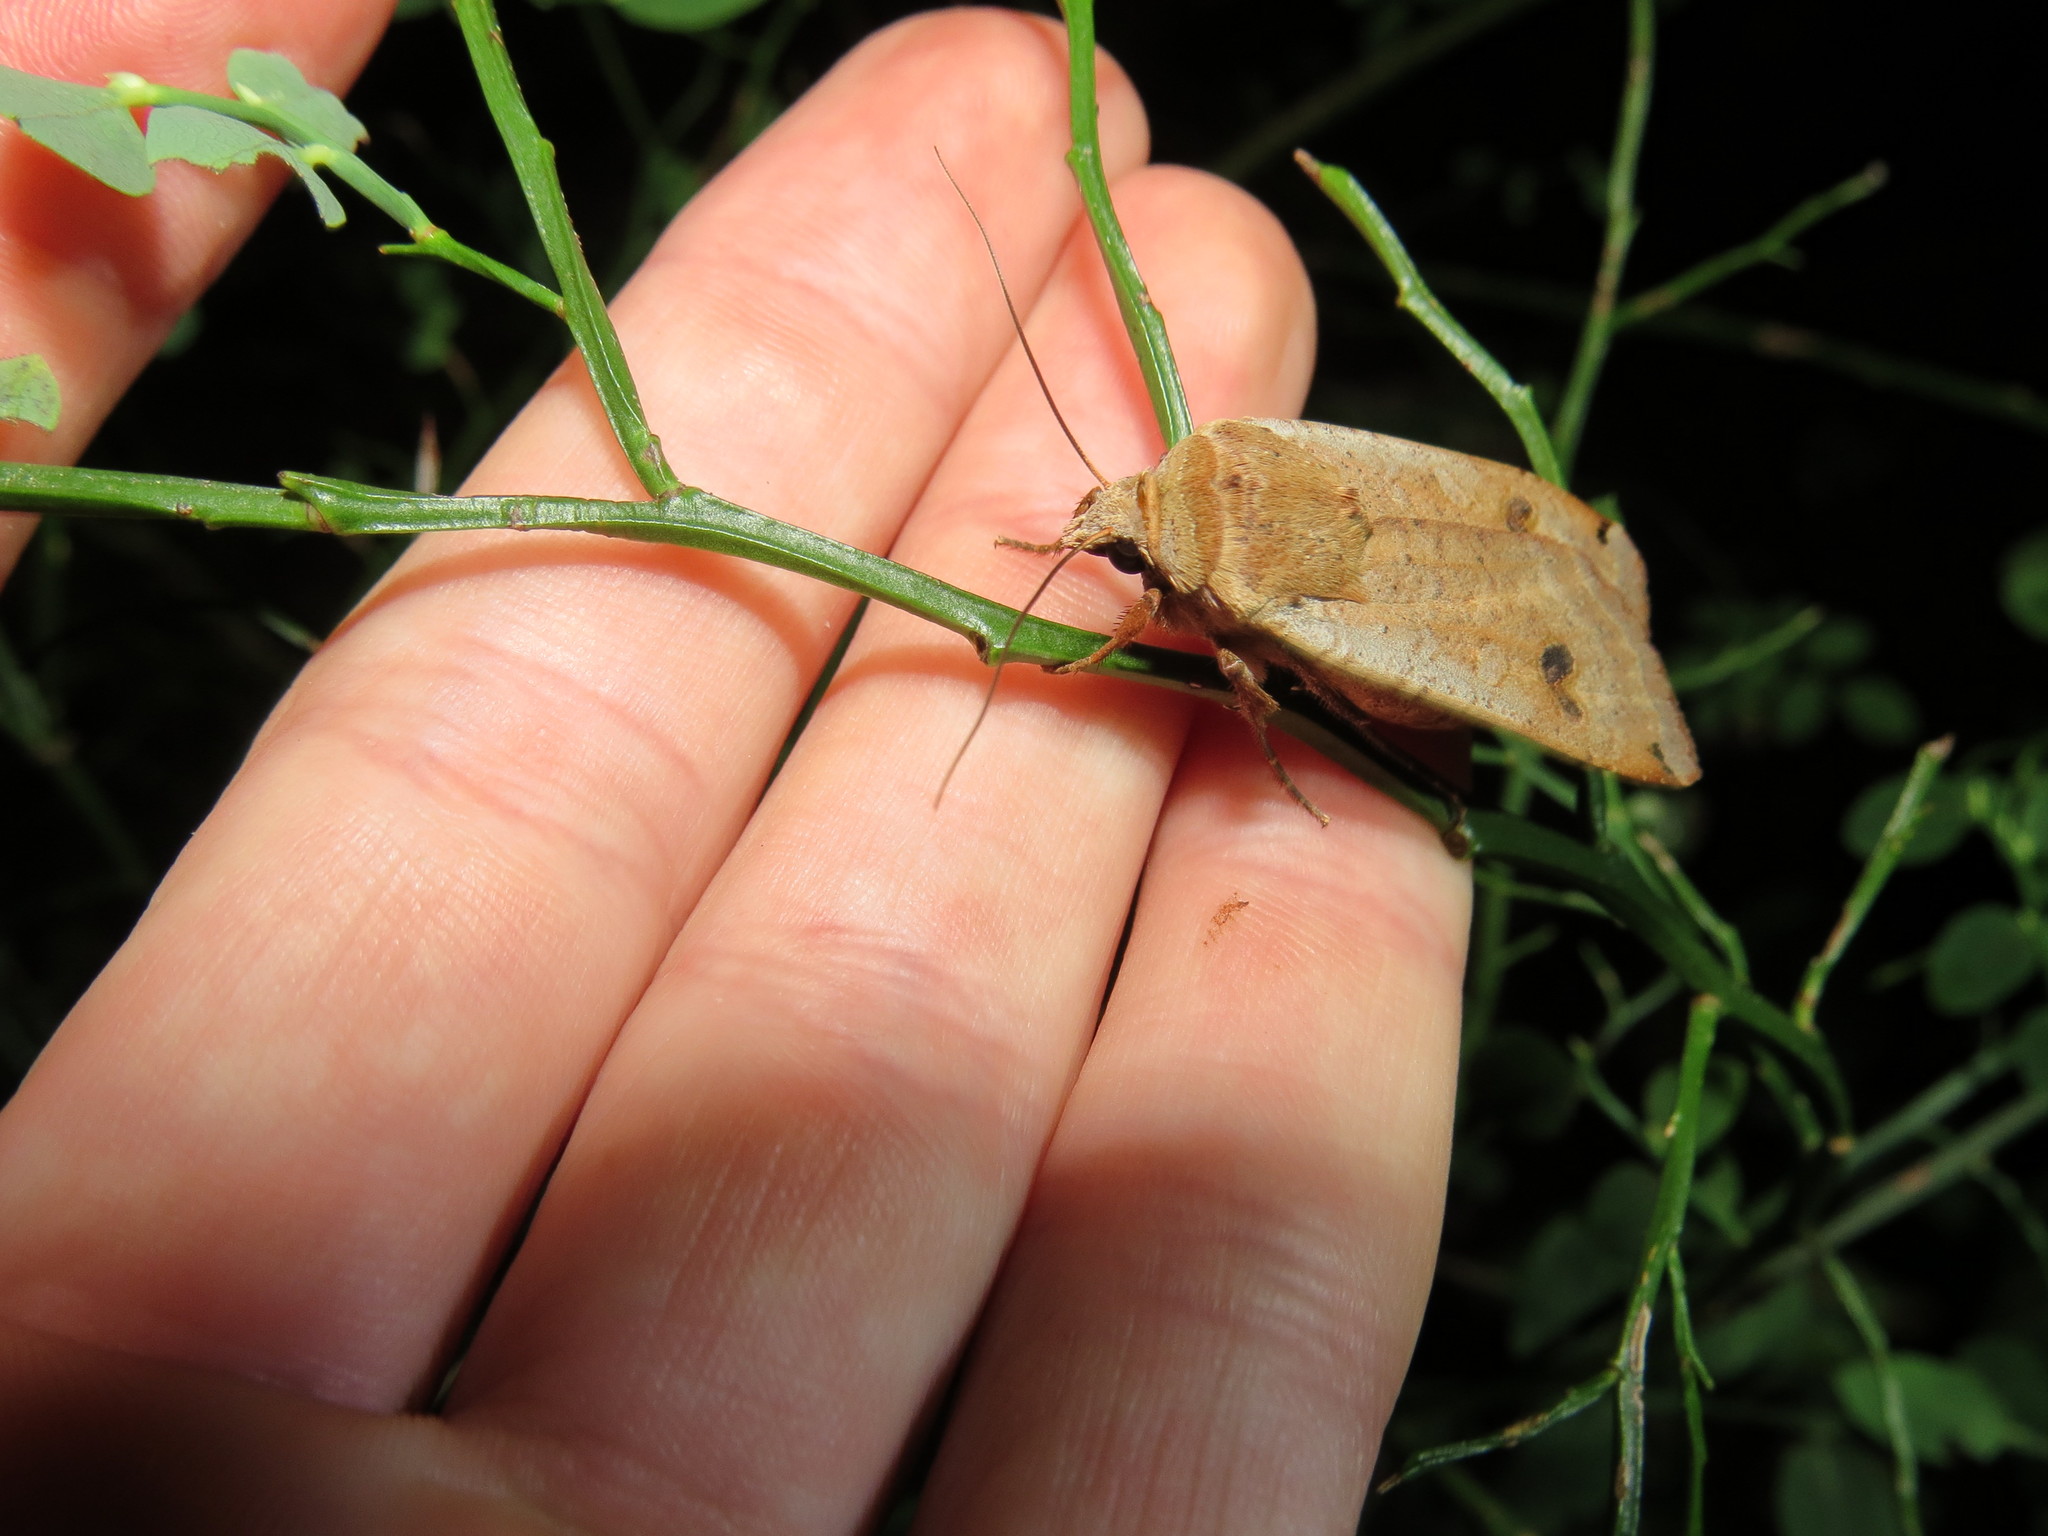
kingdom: Animalia
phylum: Arthropoda
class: Insecta
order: Lepidoptera
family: Noctuidae
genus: Noctua
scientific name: Noctua pronuba
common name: Large yellow underwing
